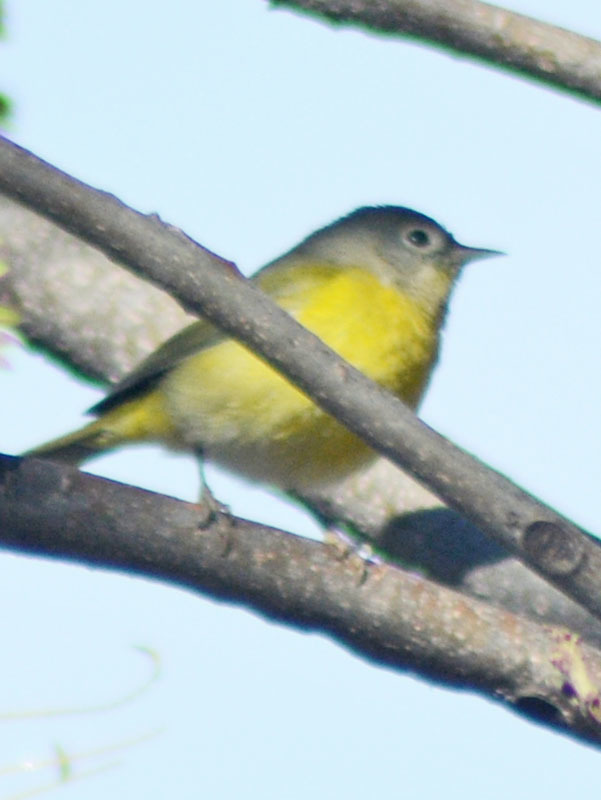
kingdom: Animalia
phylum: Chordata
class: Aves
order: Passeriformes
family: Parulidae
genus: Leiothlypis
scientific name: Leiothlypis ruficapilla
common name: Nashville warbler
